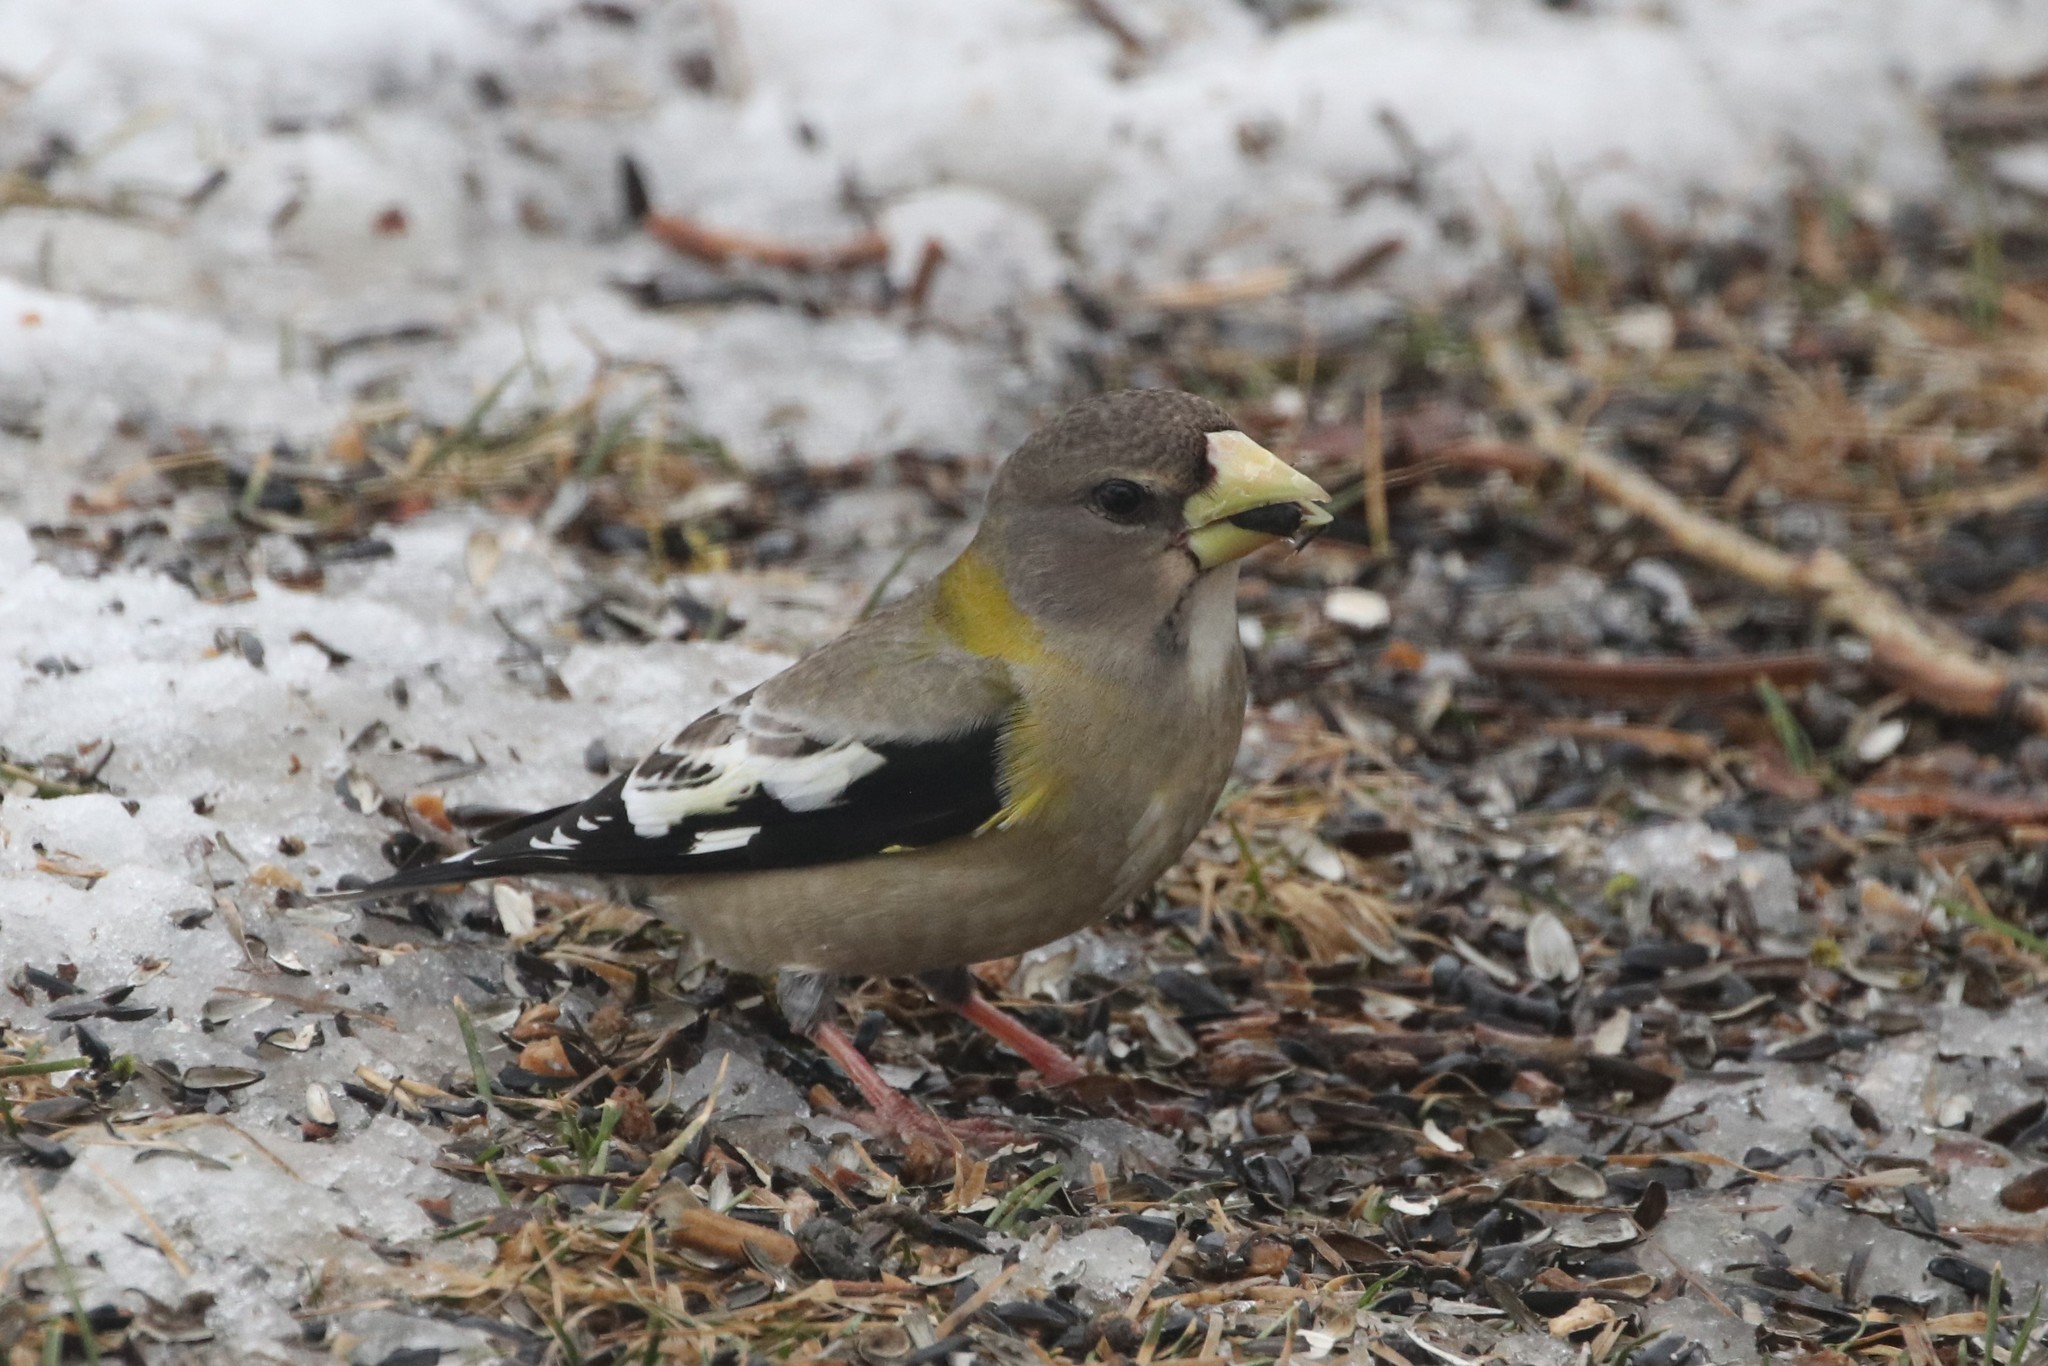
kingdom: Animalia
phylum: Chordata
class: Aves
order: Passeriformes
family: Fringillidae
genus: Hesperiphona
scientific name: Hesperiphona vespertina
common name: Evening grosbeak
